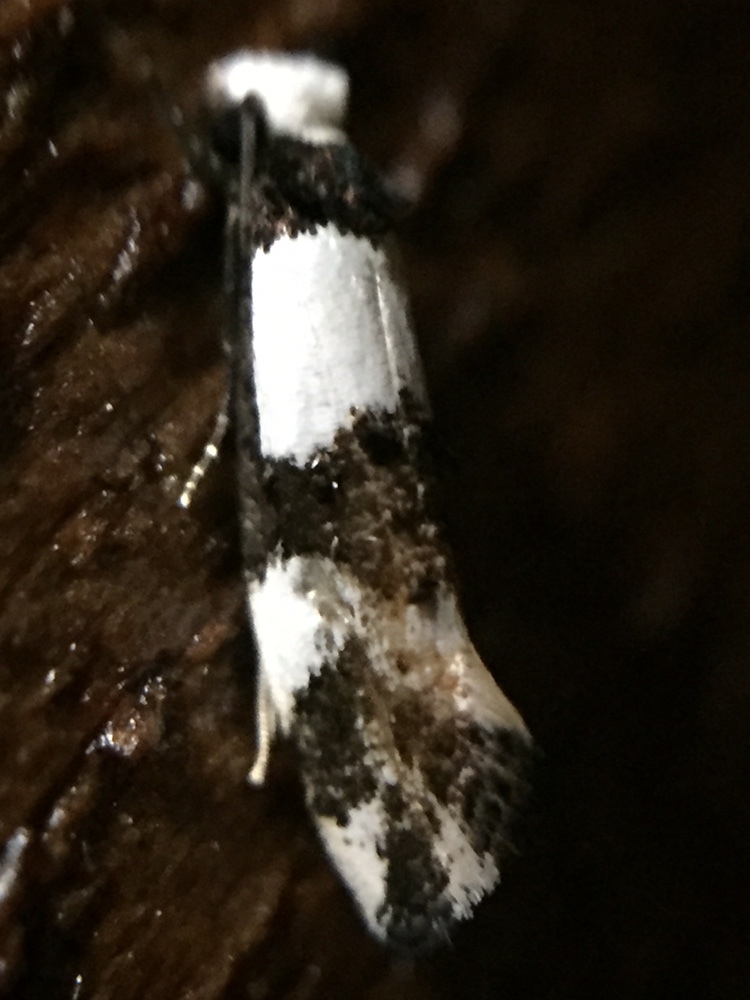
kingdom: Animalia
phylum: Arthropoda
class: Insecta
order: Lepidoptera
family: Tineidae
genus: Monopis
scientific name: Monopis icterogastra
